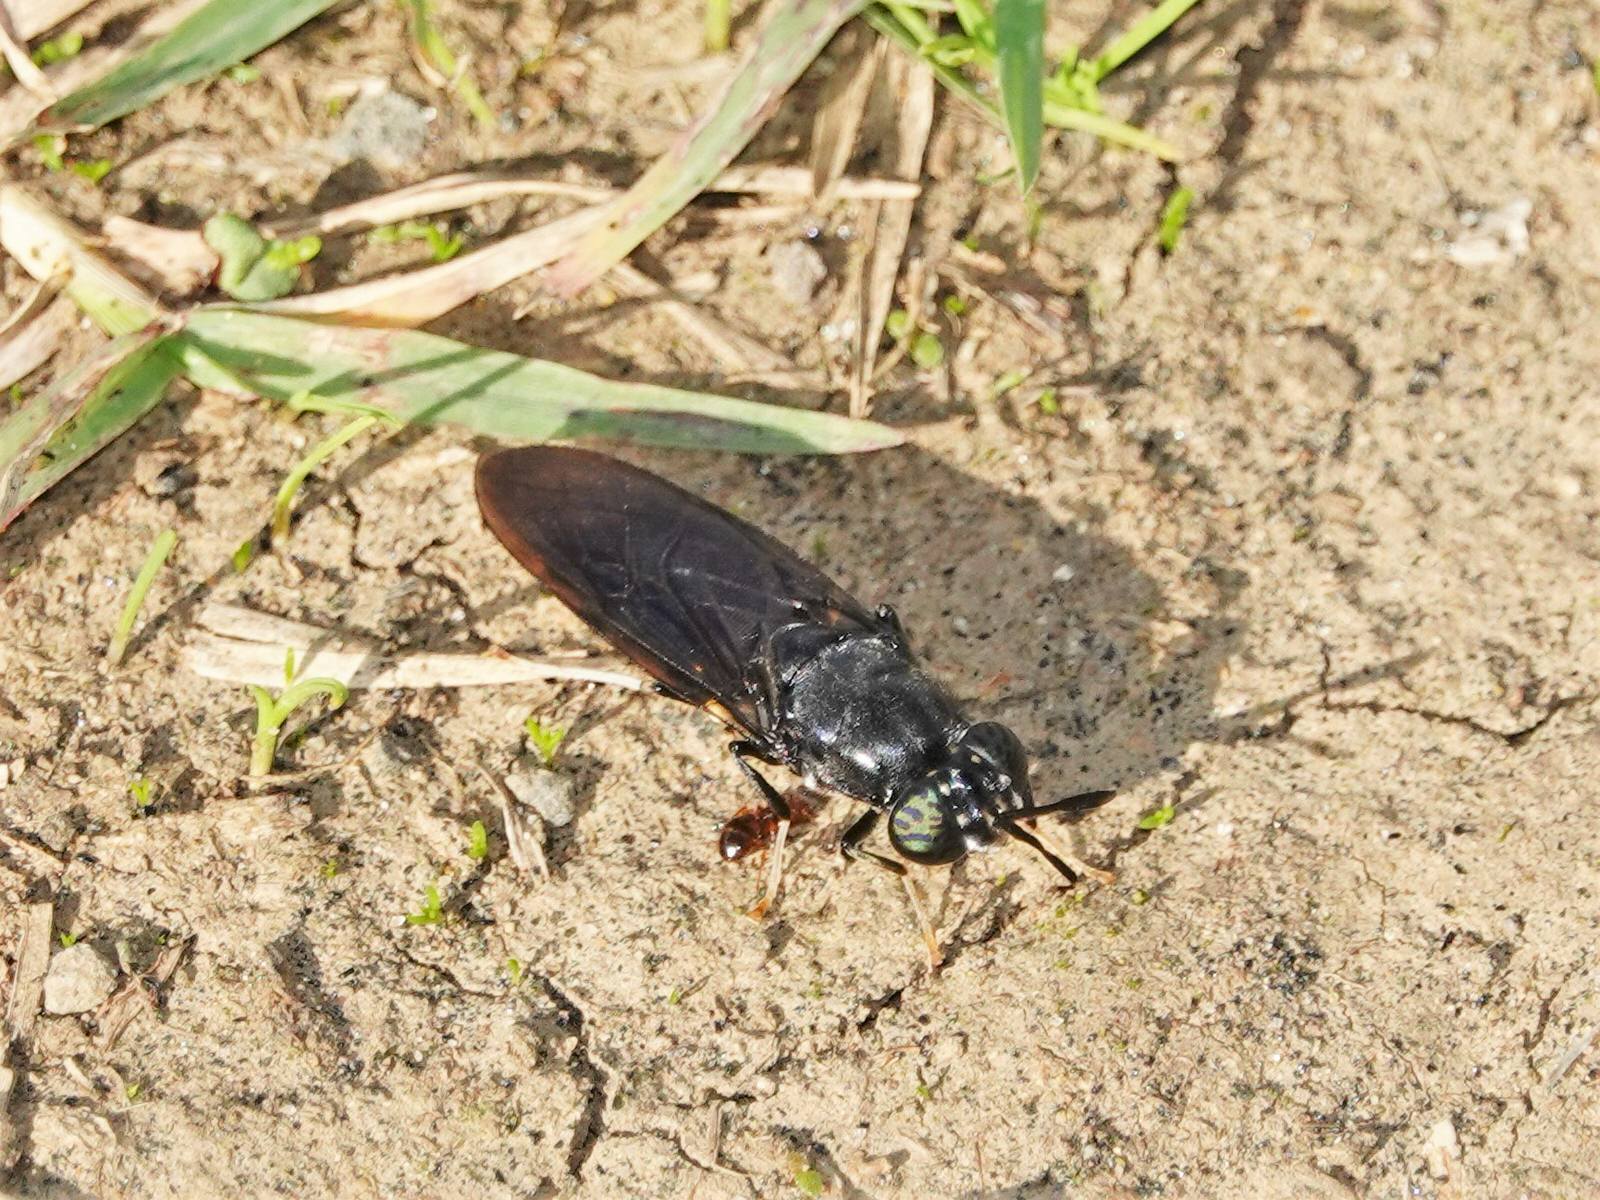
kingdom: Animalia
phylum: Arthropoda
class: Insecta
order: Diptera
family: Stratiomyidae
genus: Hermetia
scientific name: Hermetia illucens
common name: Black soldier fly
